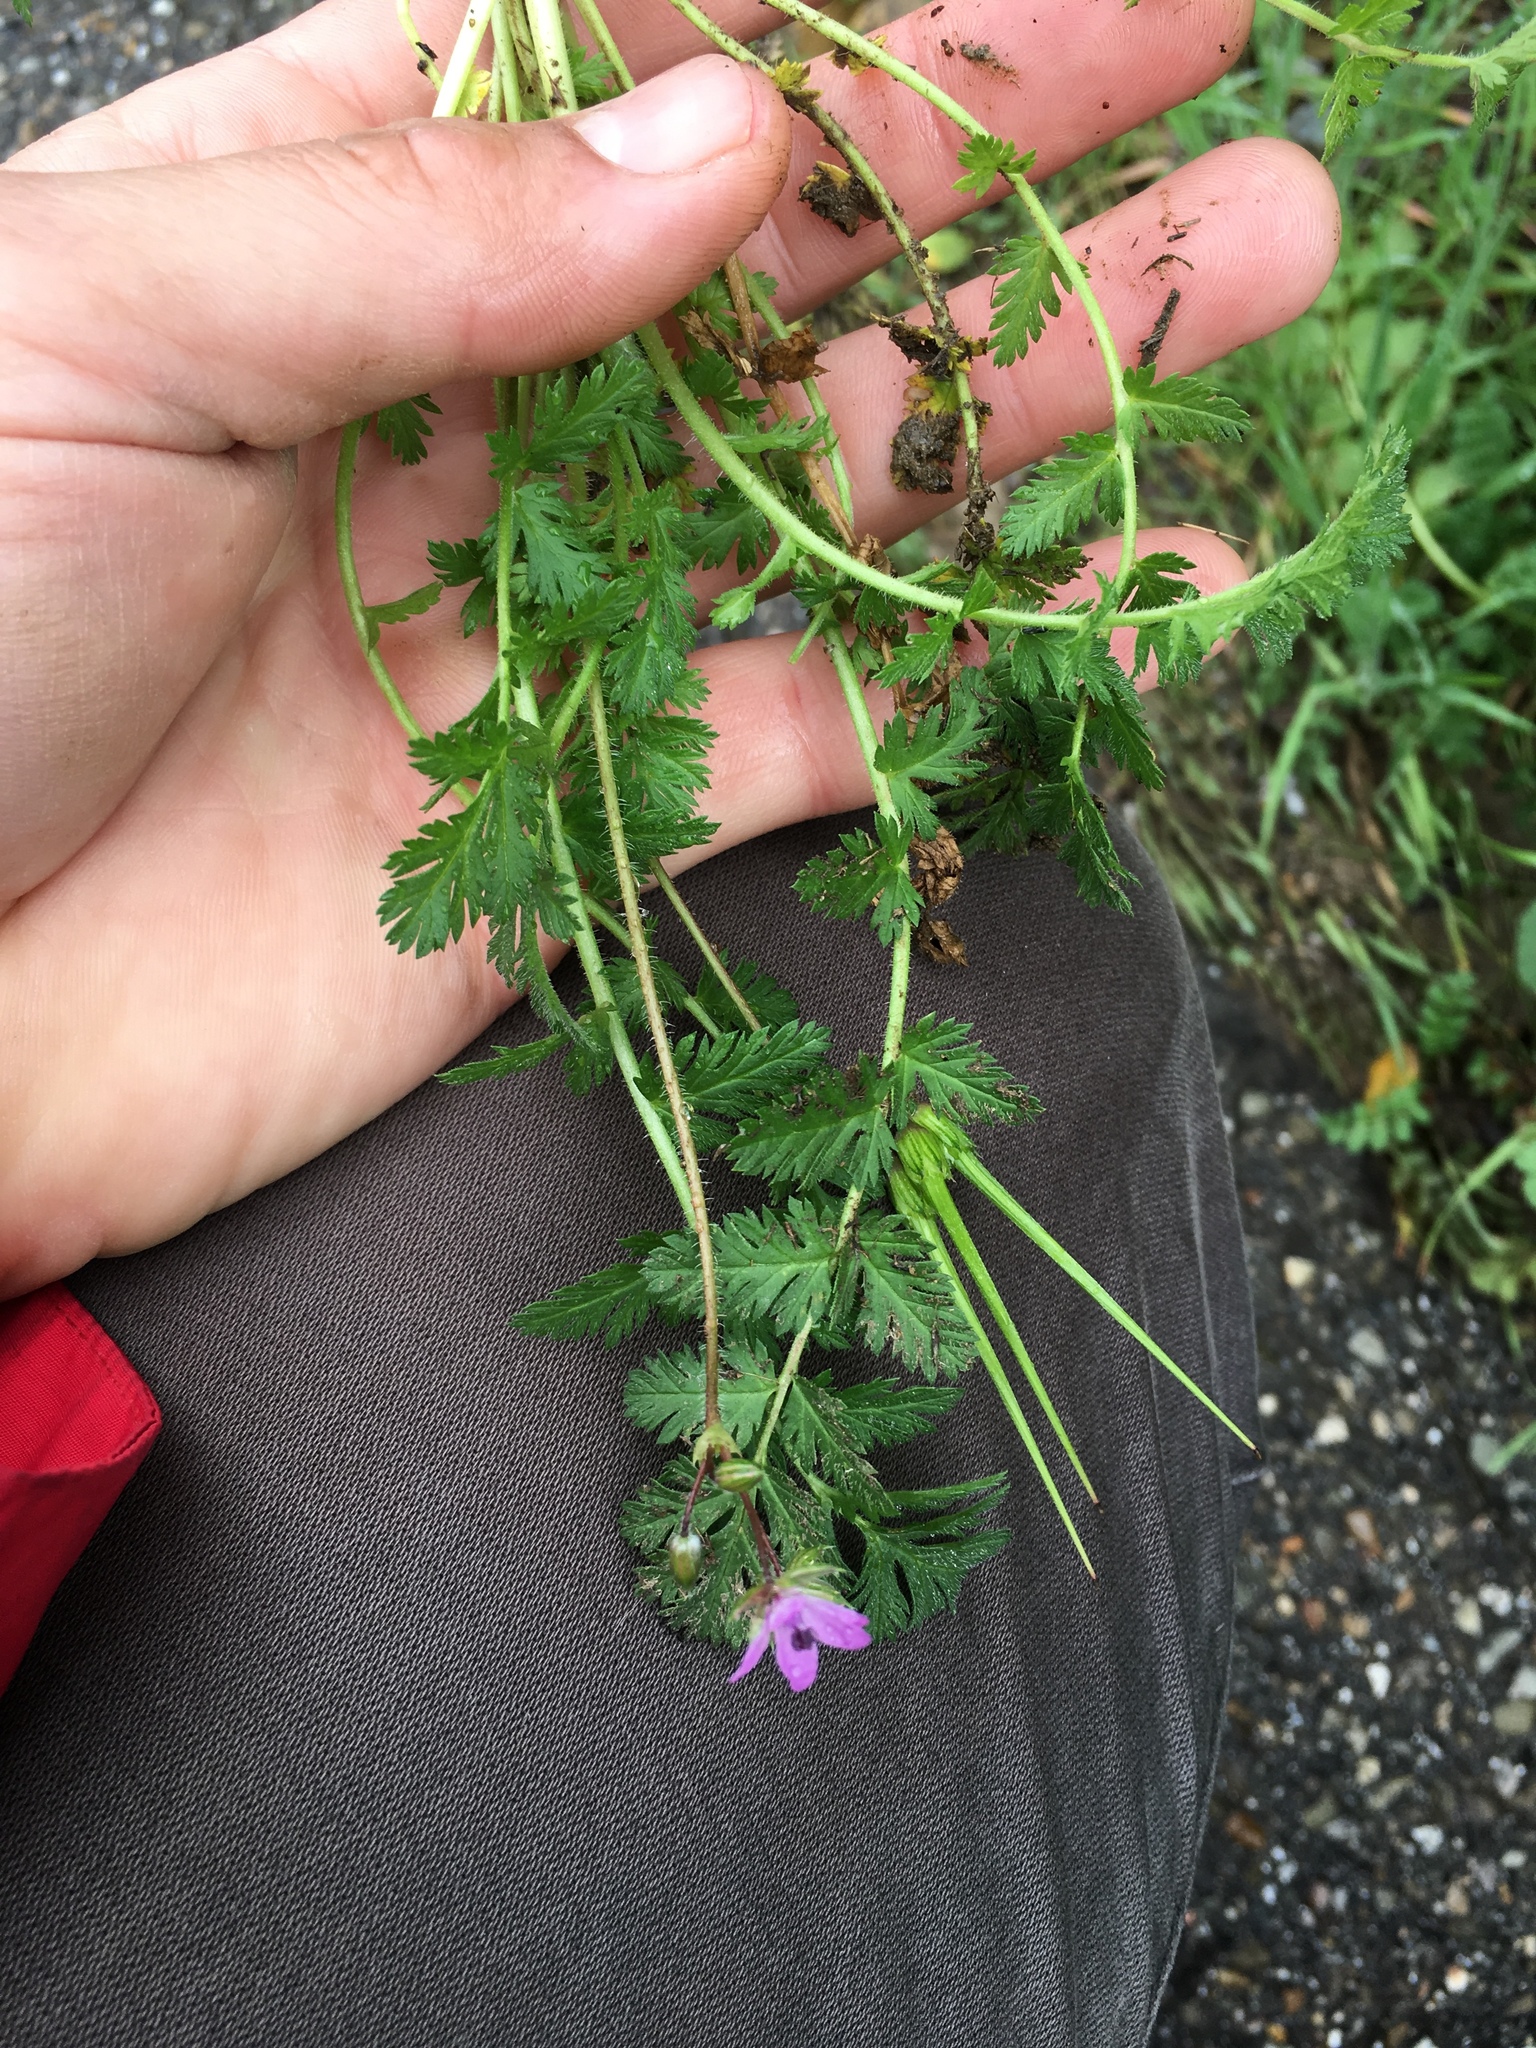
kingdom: Plantae
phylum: Tracheophyta
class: Magnoliopsida
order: Geraniales
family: Geraniaceae
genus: Erodium
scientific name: Erodium cicutarium
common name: Common stork's-bill
